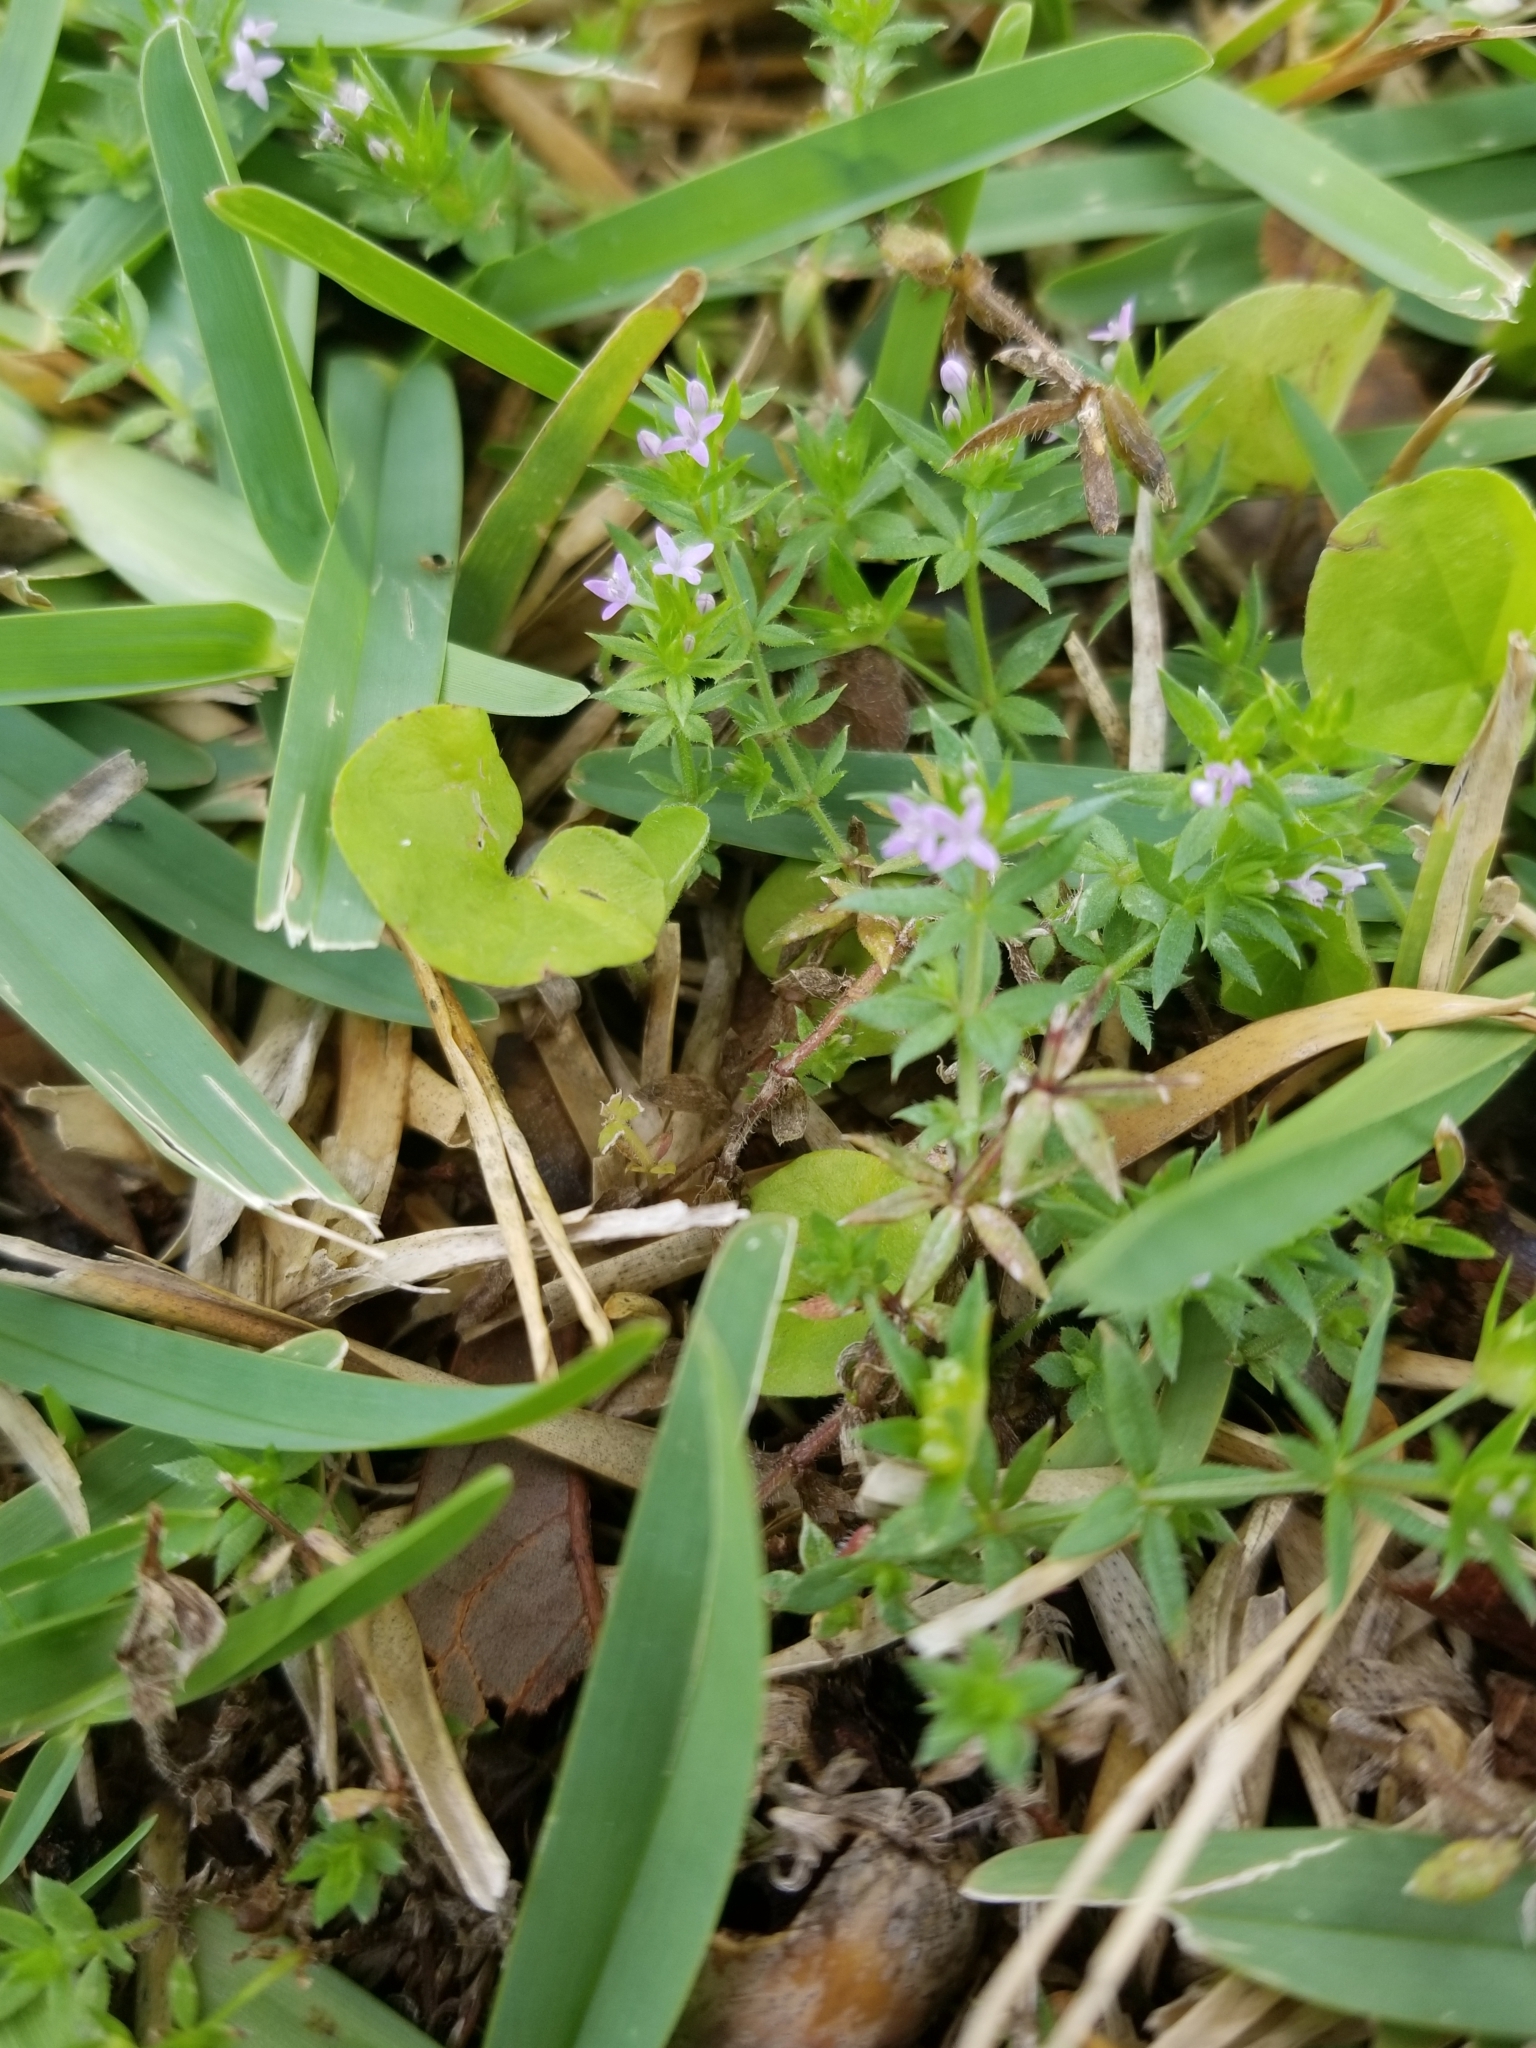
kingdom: Plantae
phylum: Tracheophyta
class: Magnoliopsida
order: Gentianales
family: Rubiaceae
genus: Sherardia
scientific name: Sherardia arvensis
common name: Field madder
